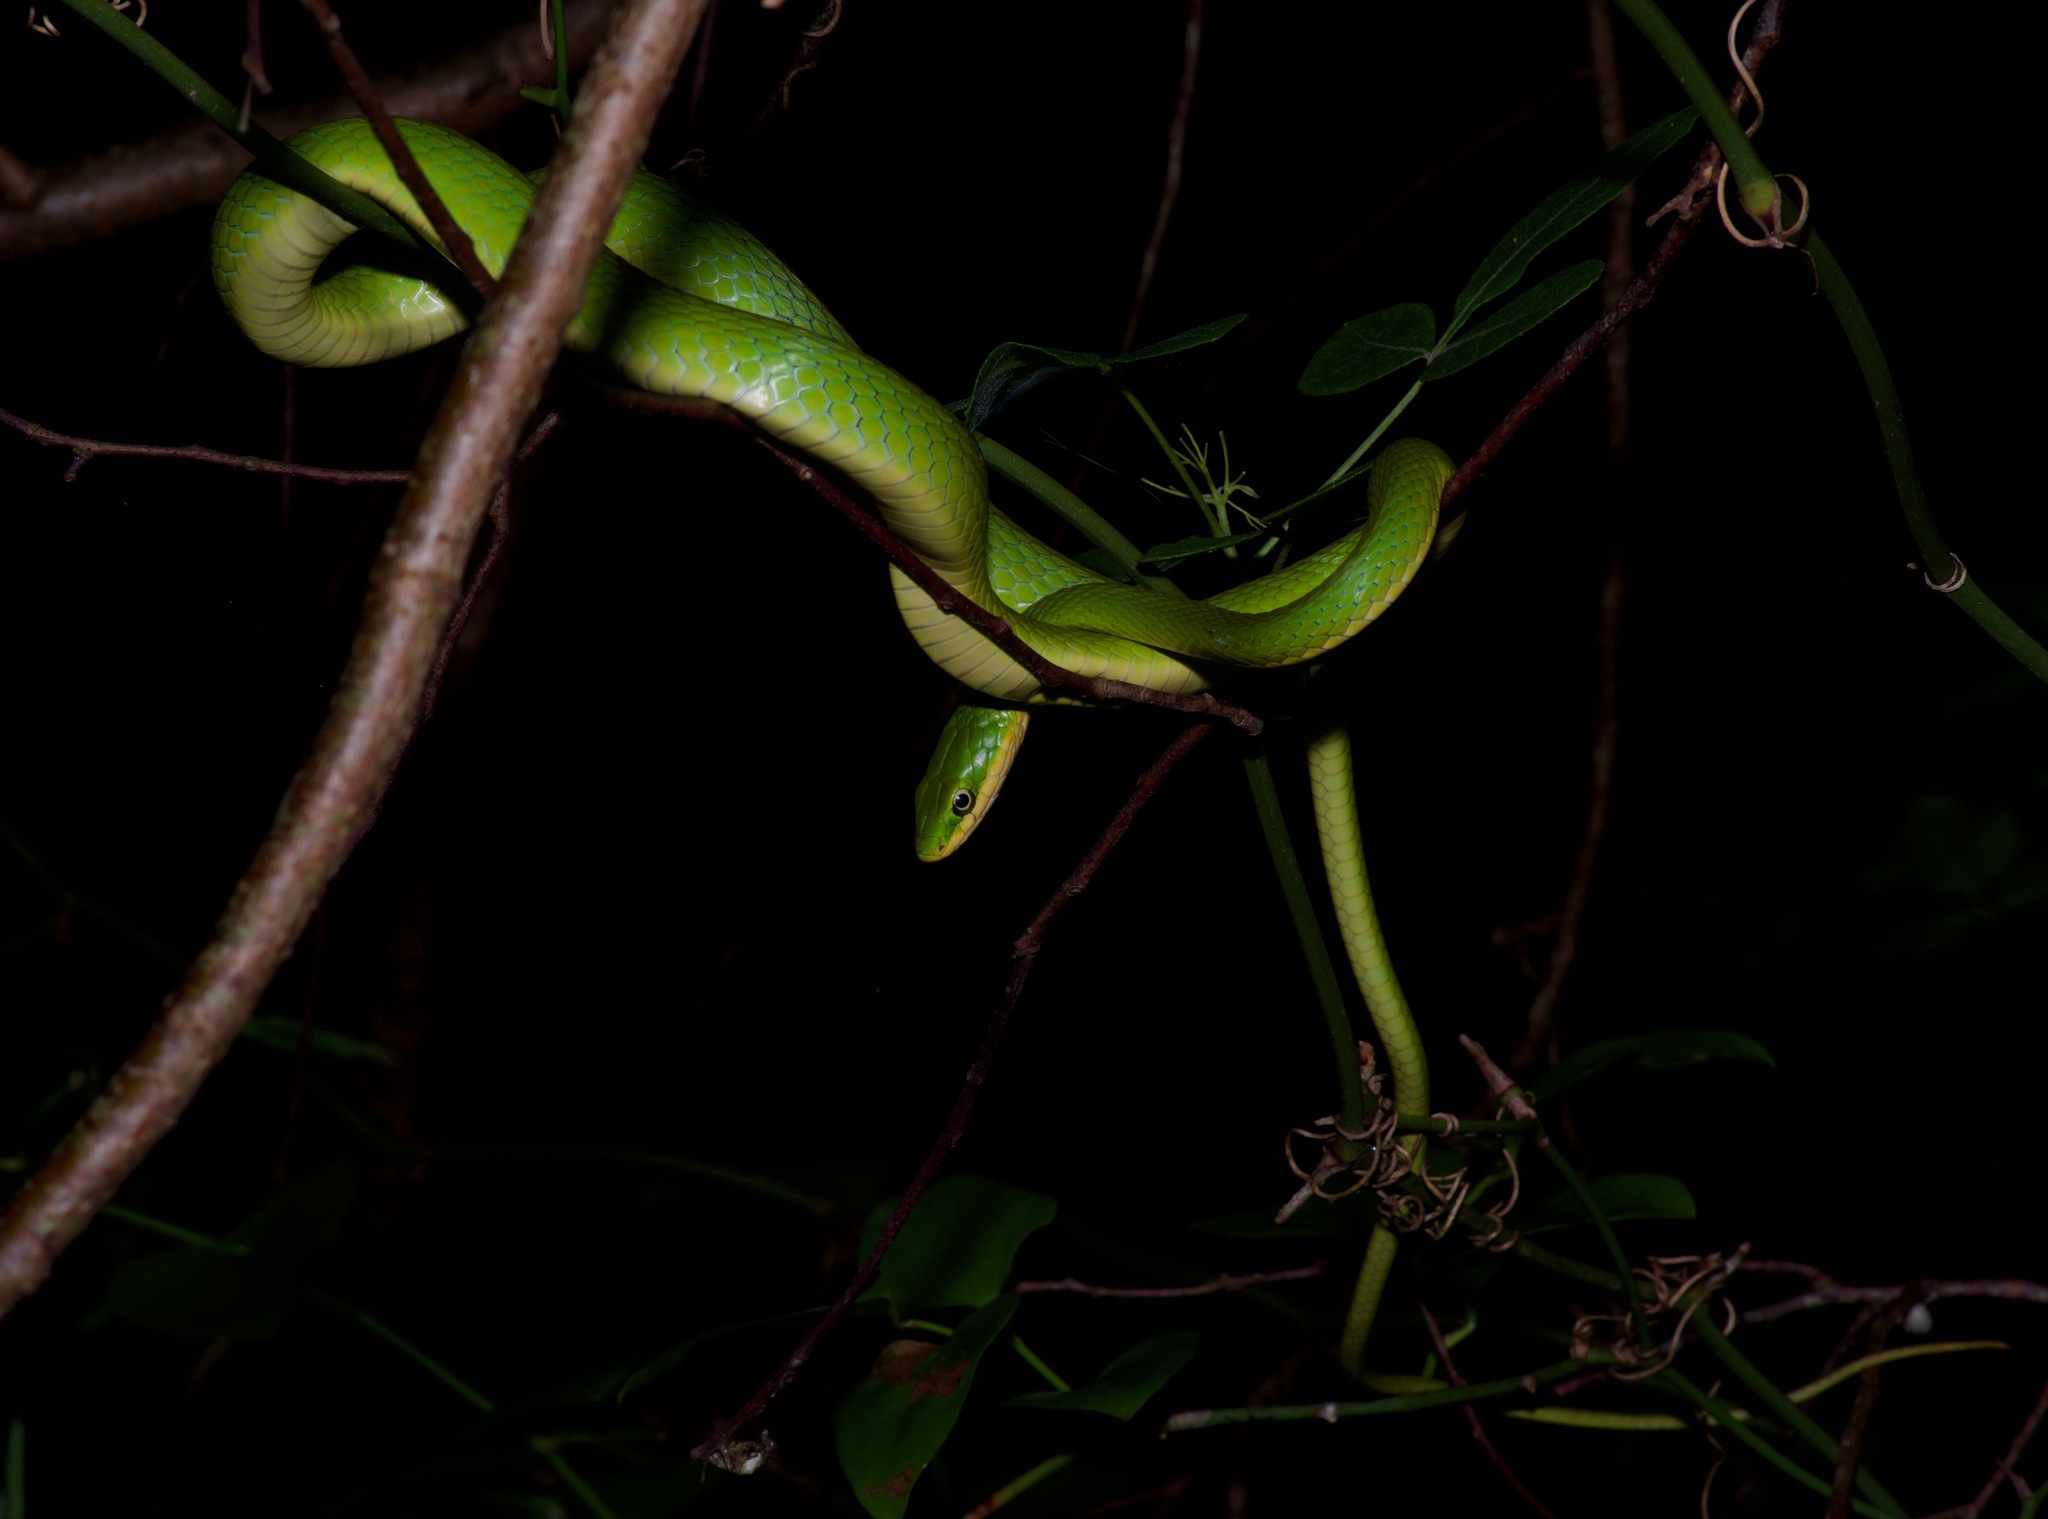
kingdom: Animalia
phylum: Chordata
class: Squamata
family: Colubridae
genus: Opheodrys
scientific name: Opheodrys aestivus
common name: Rough greensnake
